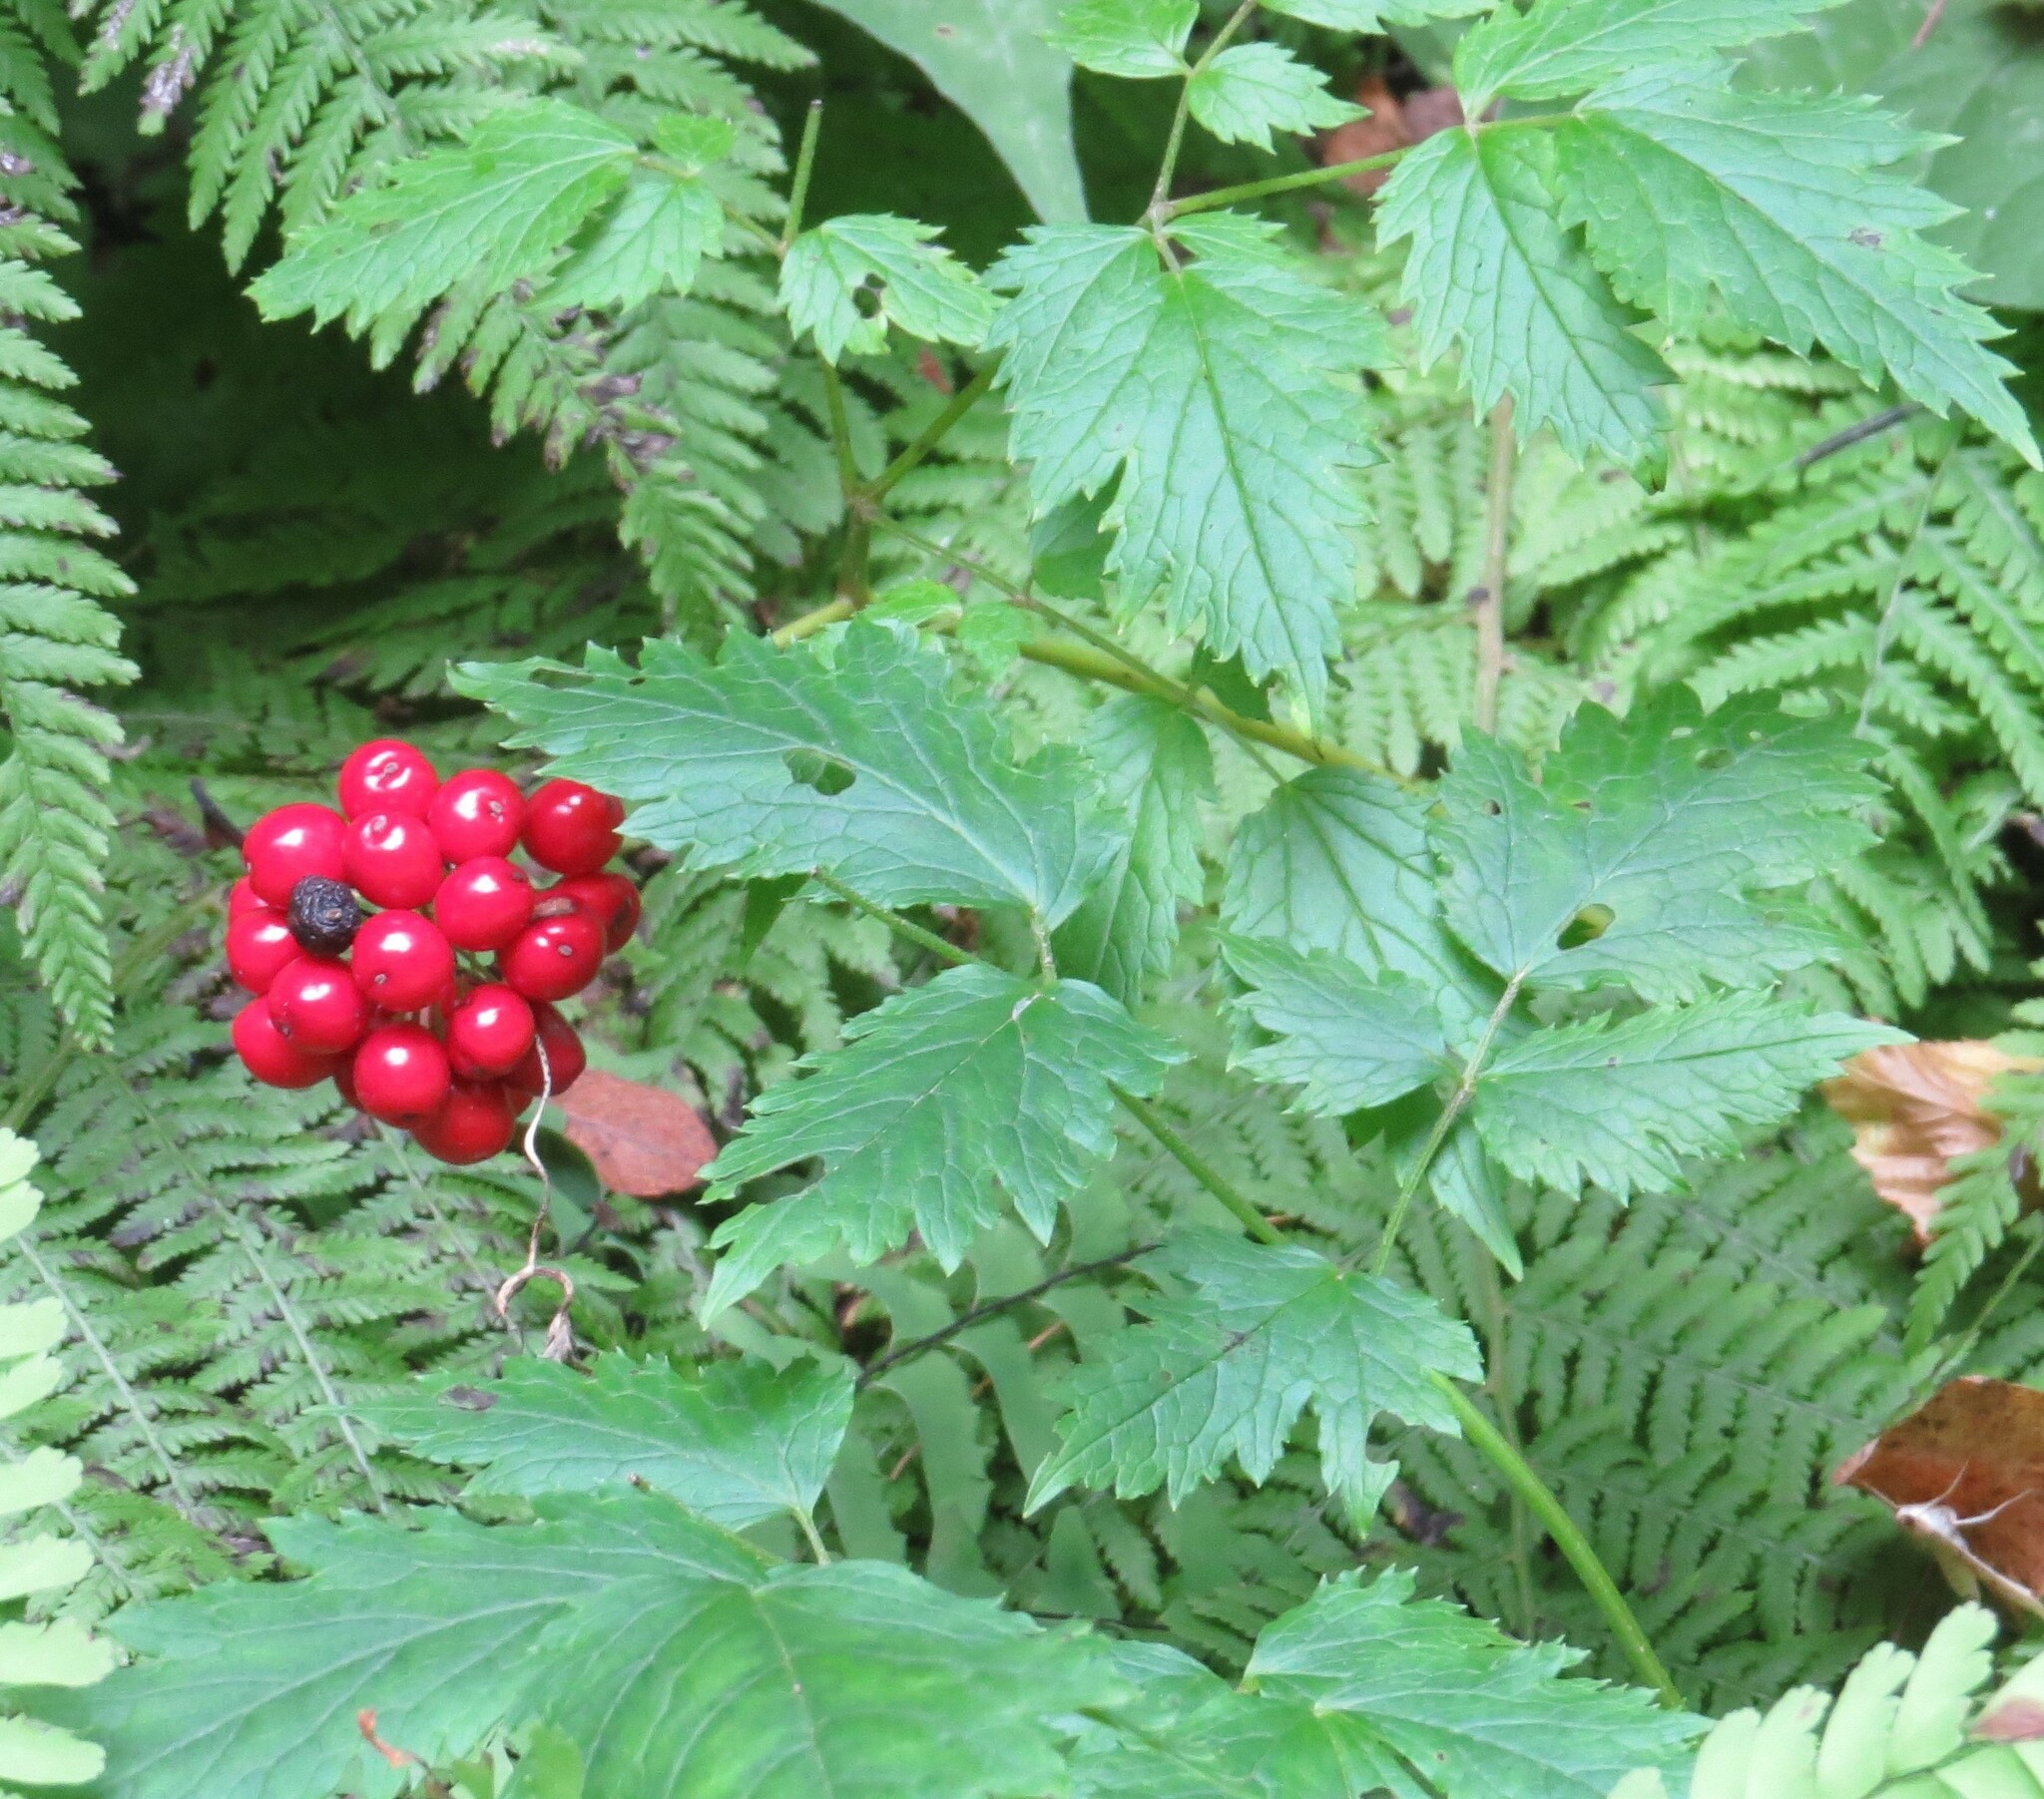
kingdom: Plantae
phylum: Tracheophyta
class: Magnoliopsida
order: Ranunculales
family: Ranunculaceae
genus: Actaea
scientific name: Actaea rubra
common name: Red baneberry
